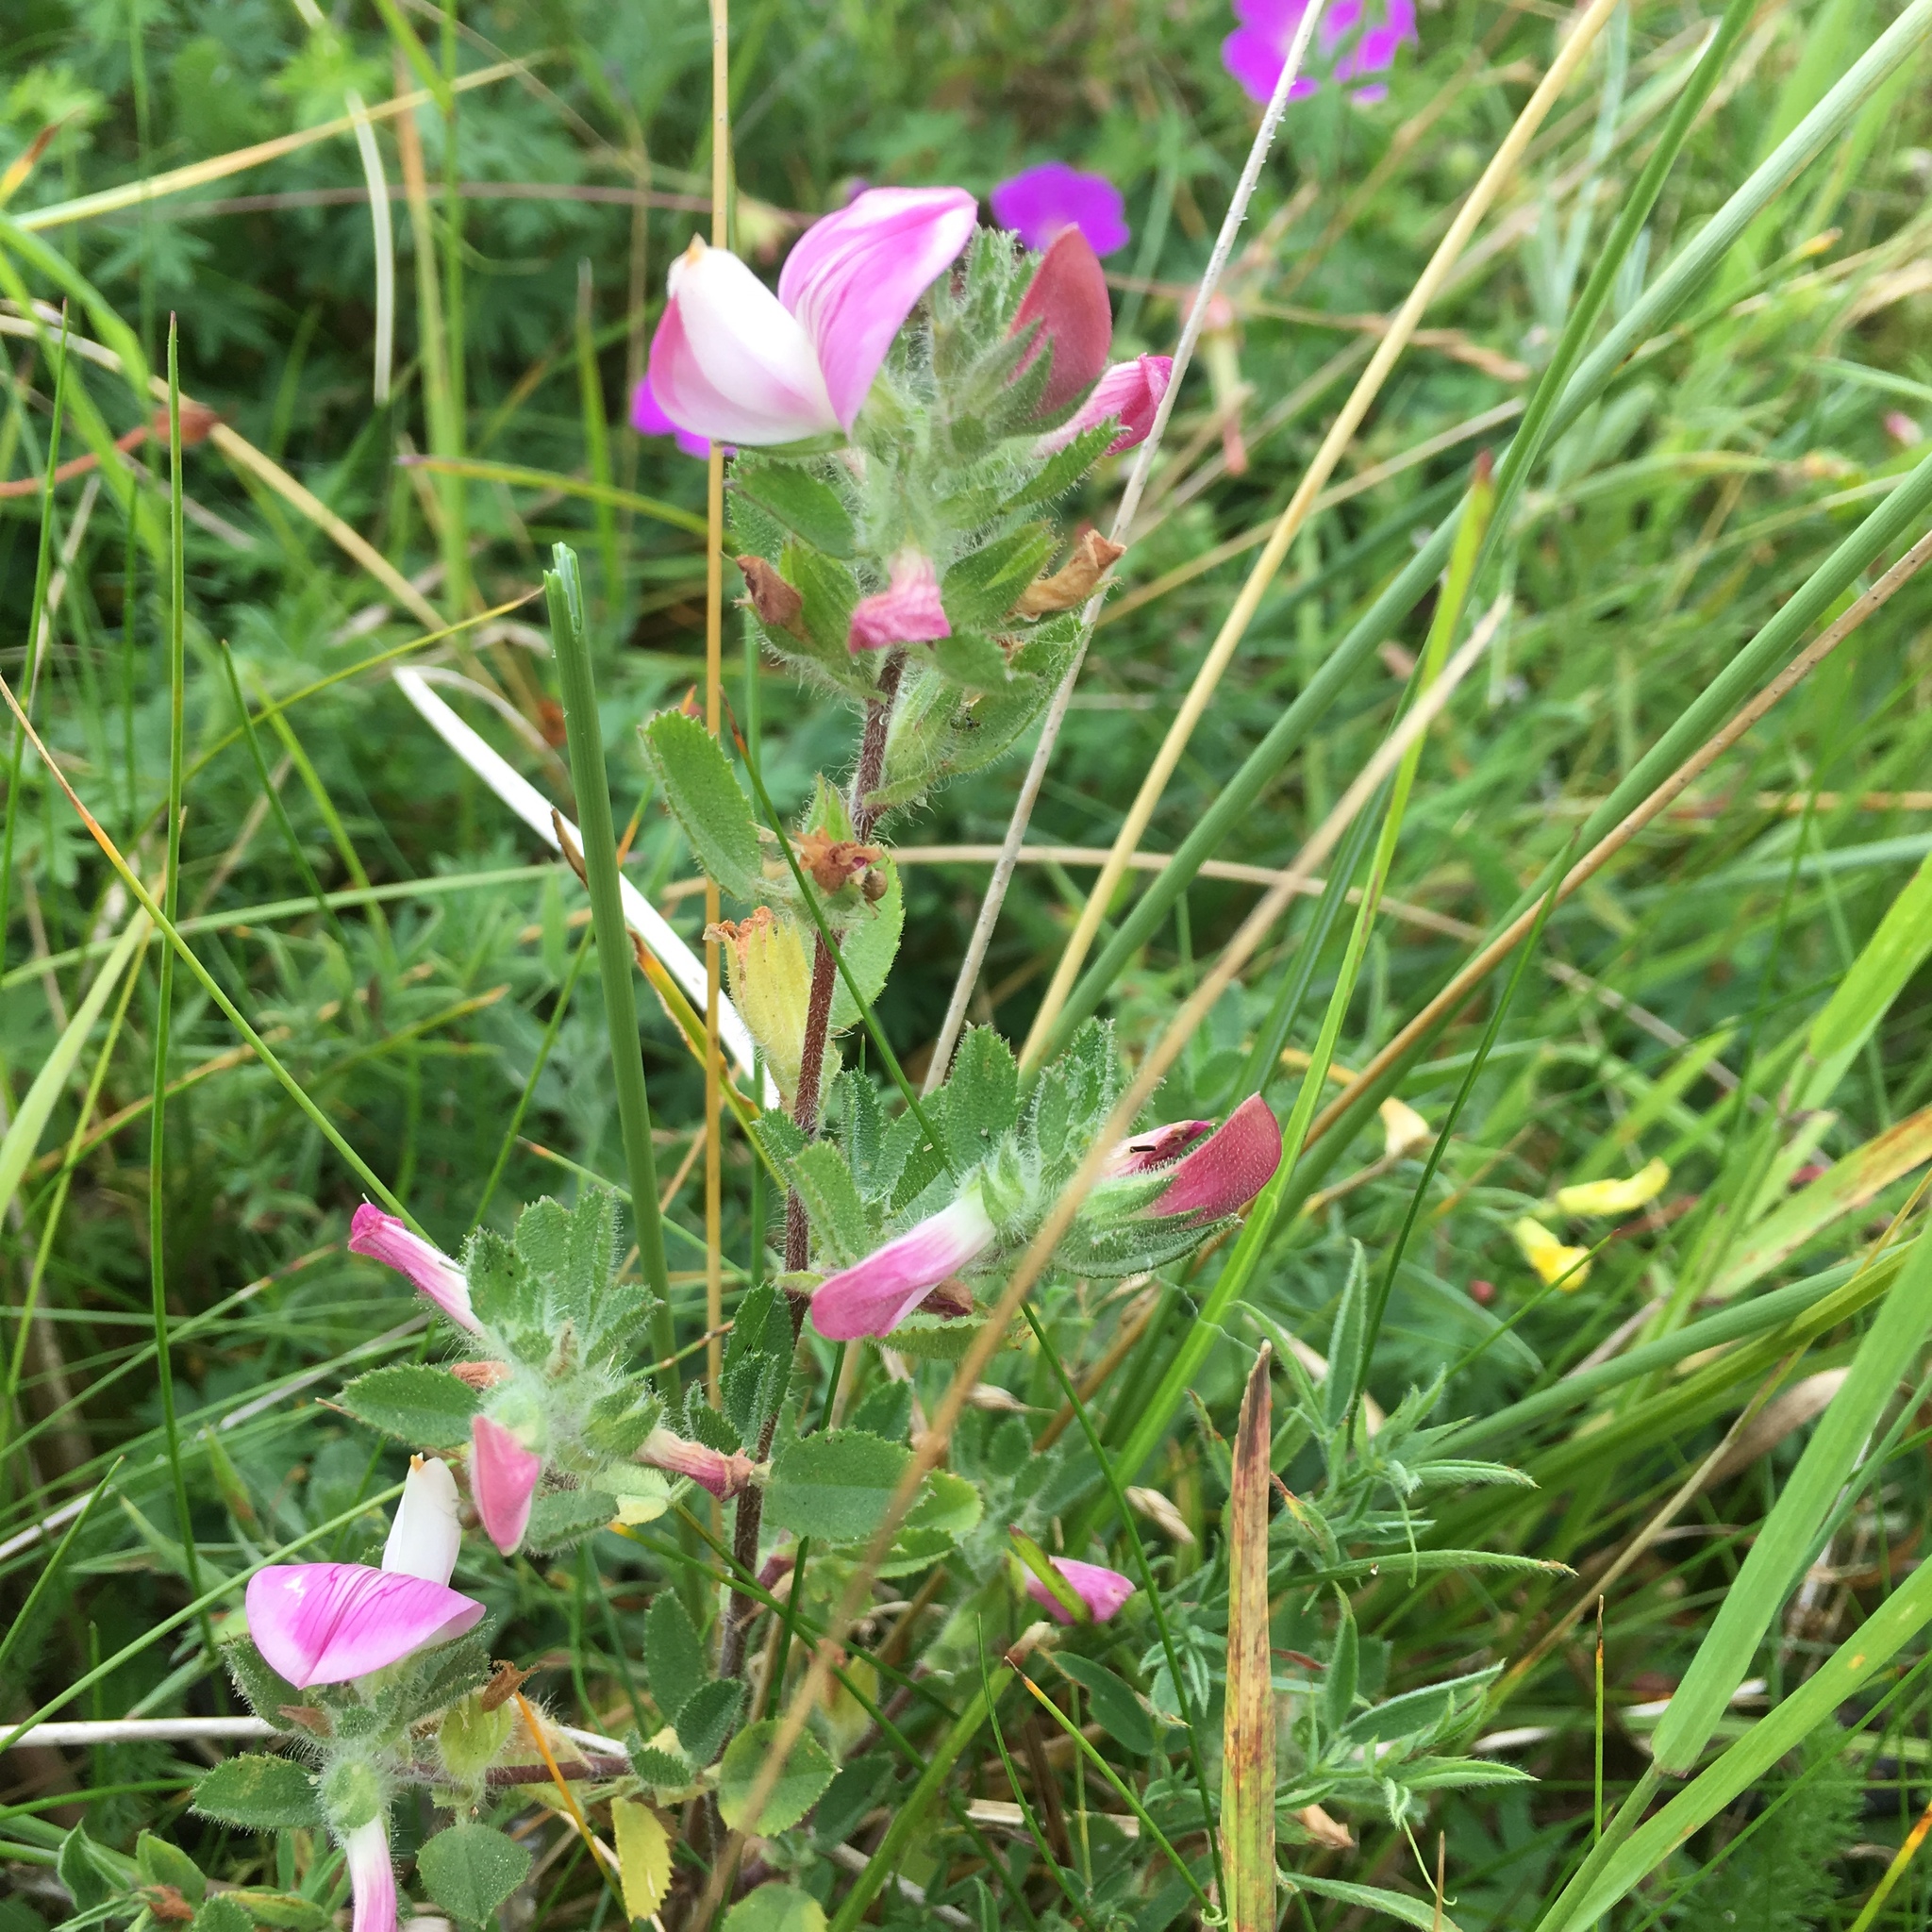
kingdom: Plantae
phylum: Tracheophyta
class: Magnoliopsida
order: Fabales
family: Fabaceae
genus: Ononis
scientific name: Ononis spinosa
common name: Spiny restharrow
